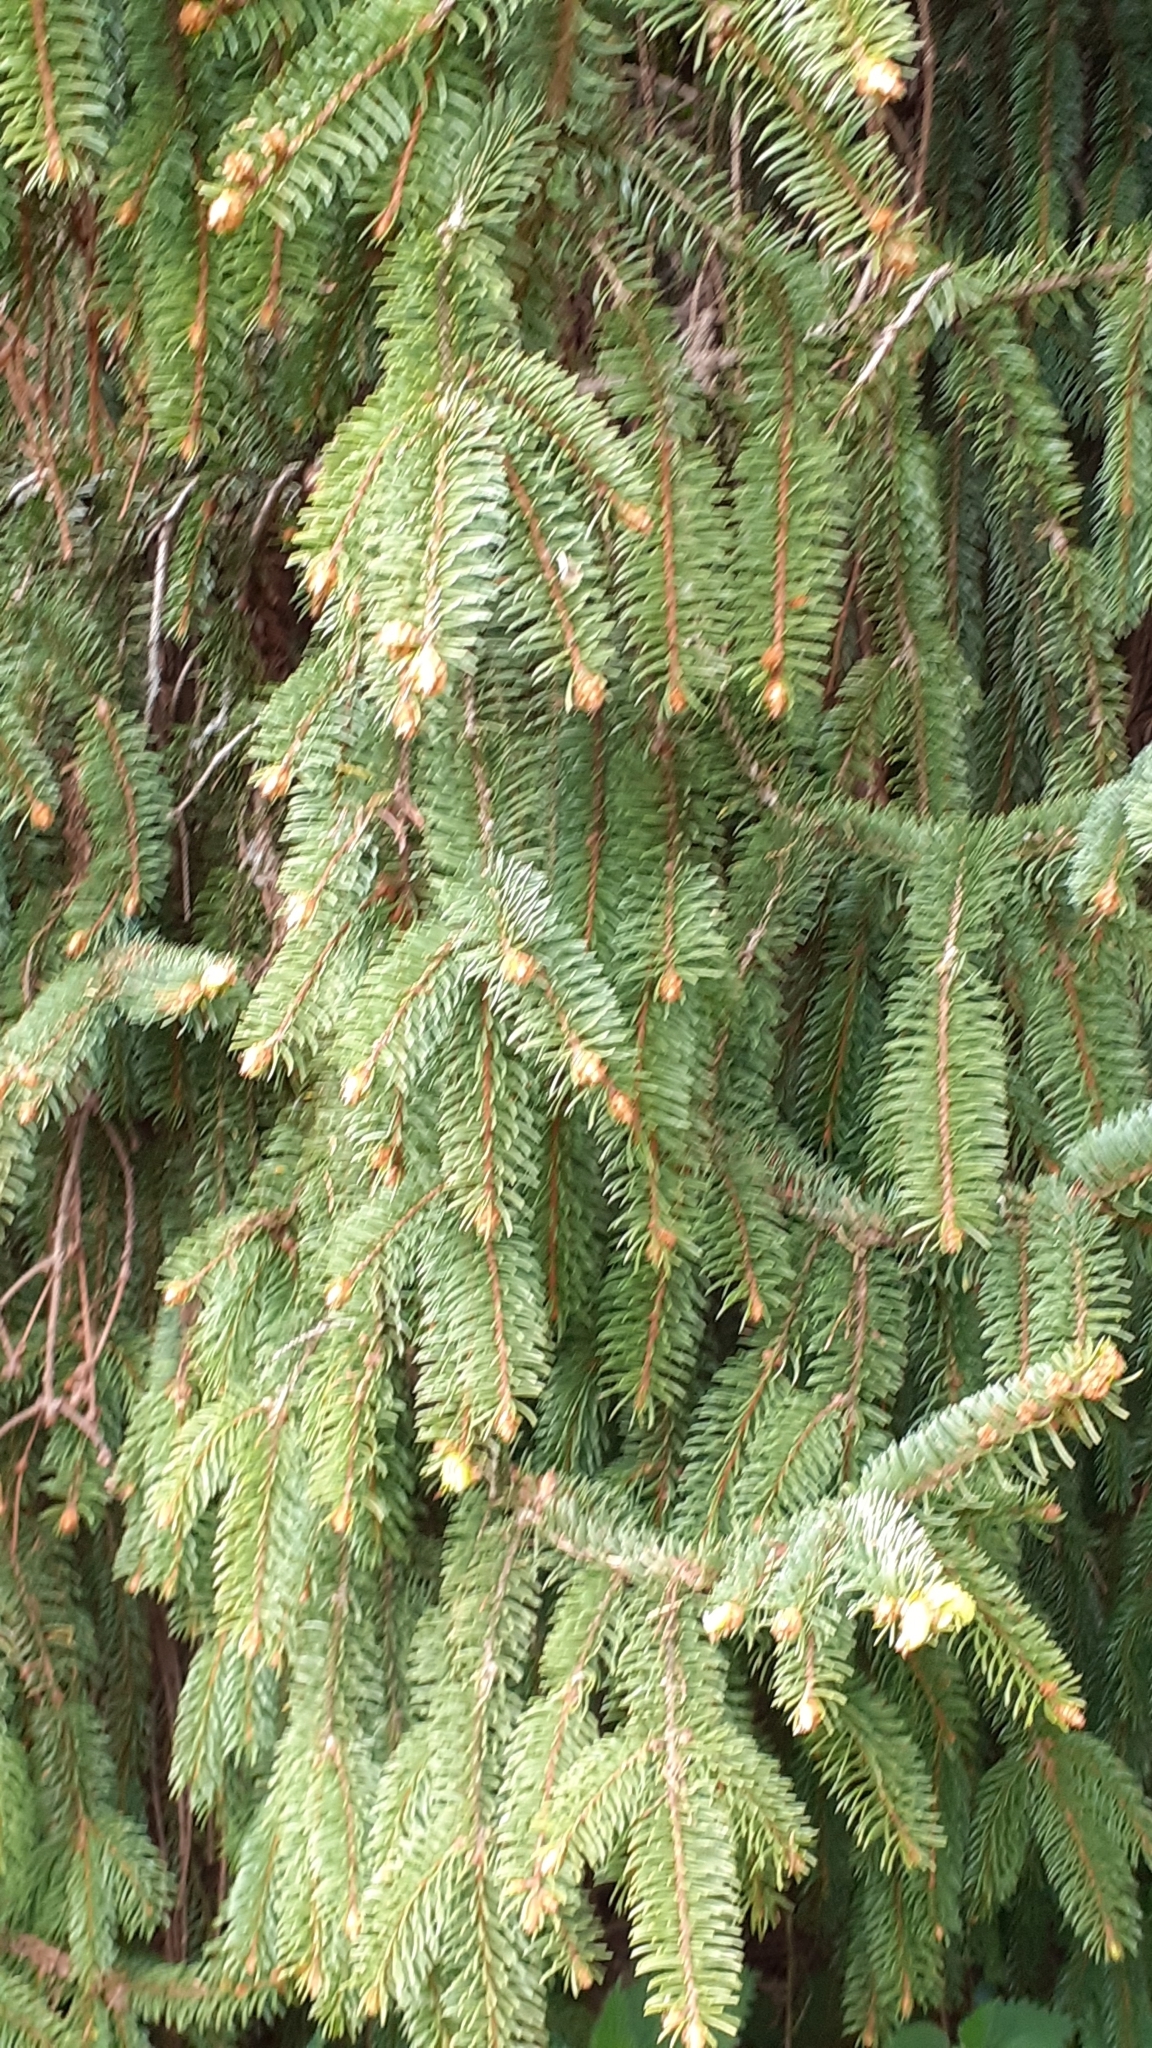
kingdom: Plantae
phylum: Tracheophyta
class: Pinopsida
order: Pinales
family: Pinaceae
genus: Picea
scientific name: Picea abies
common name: Norway spruce
